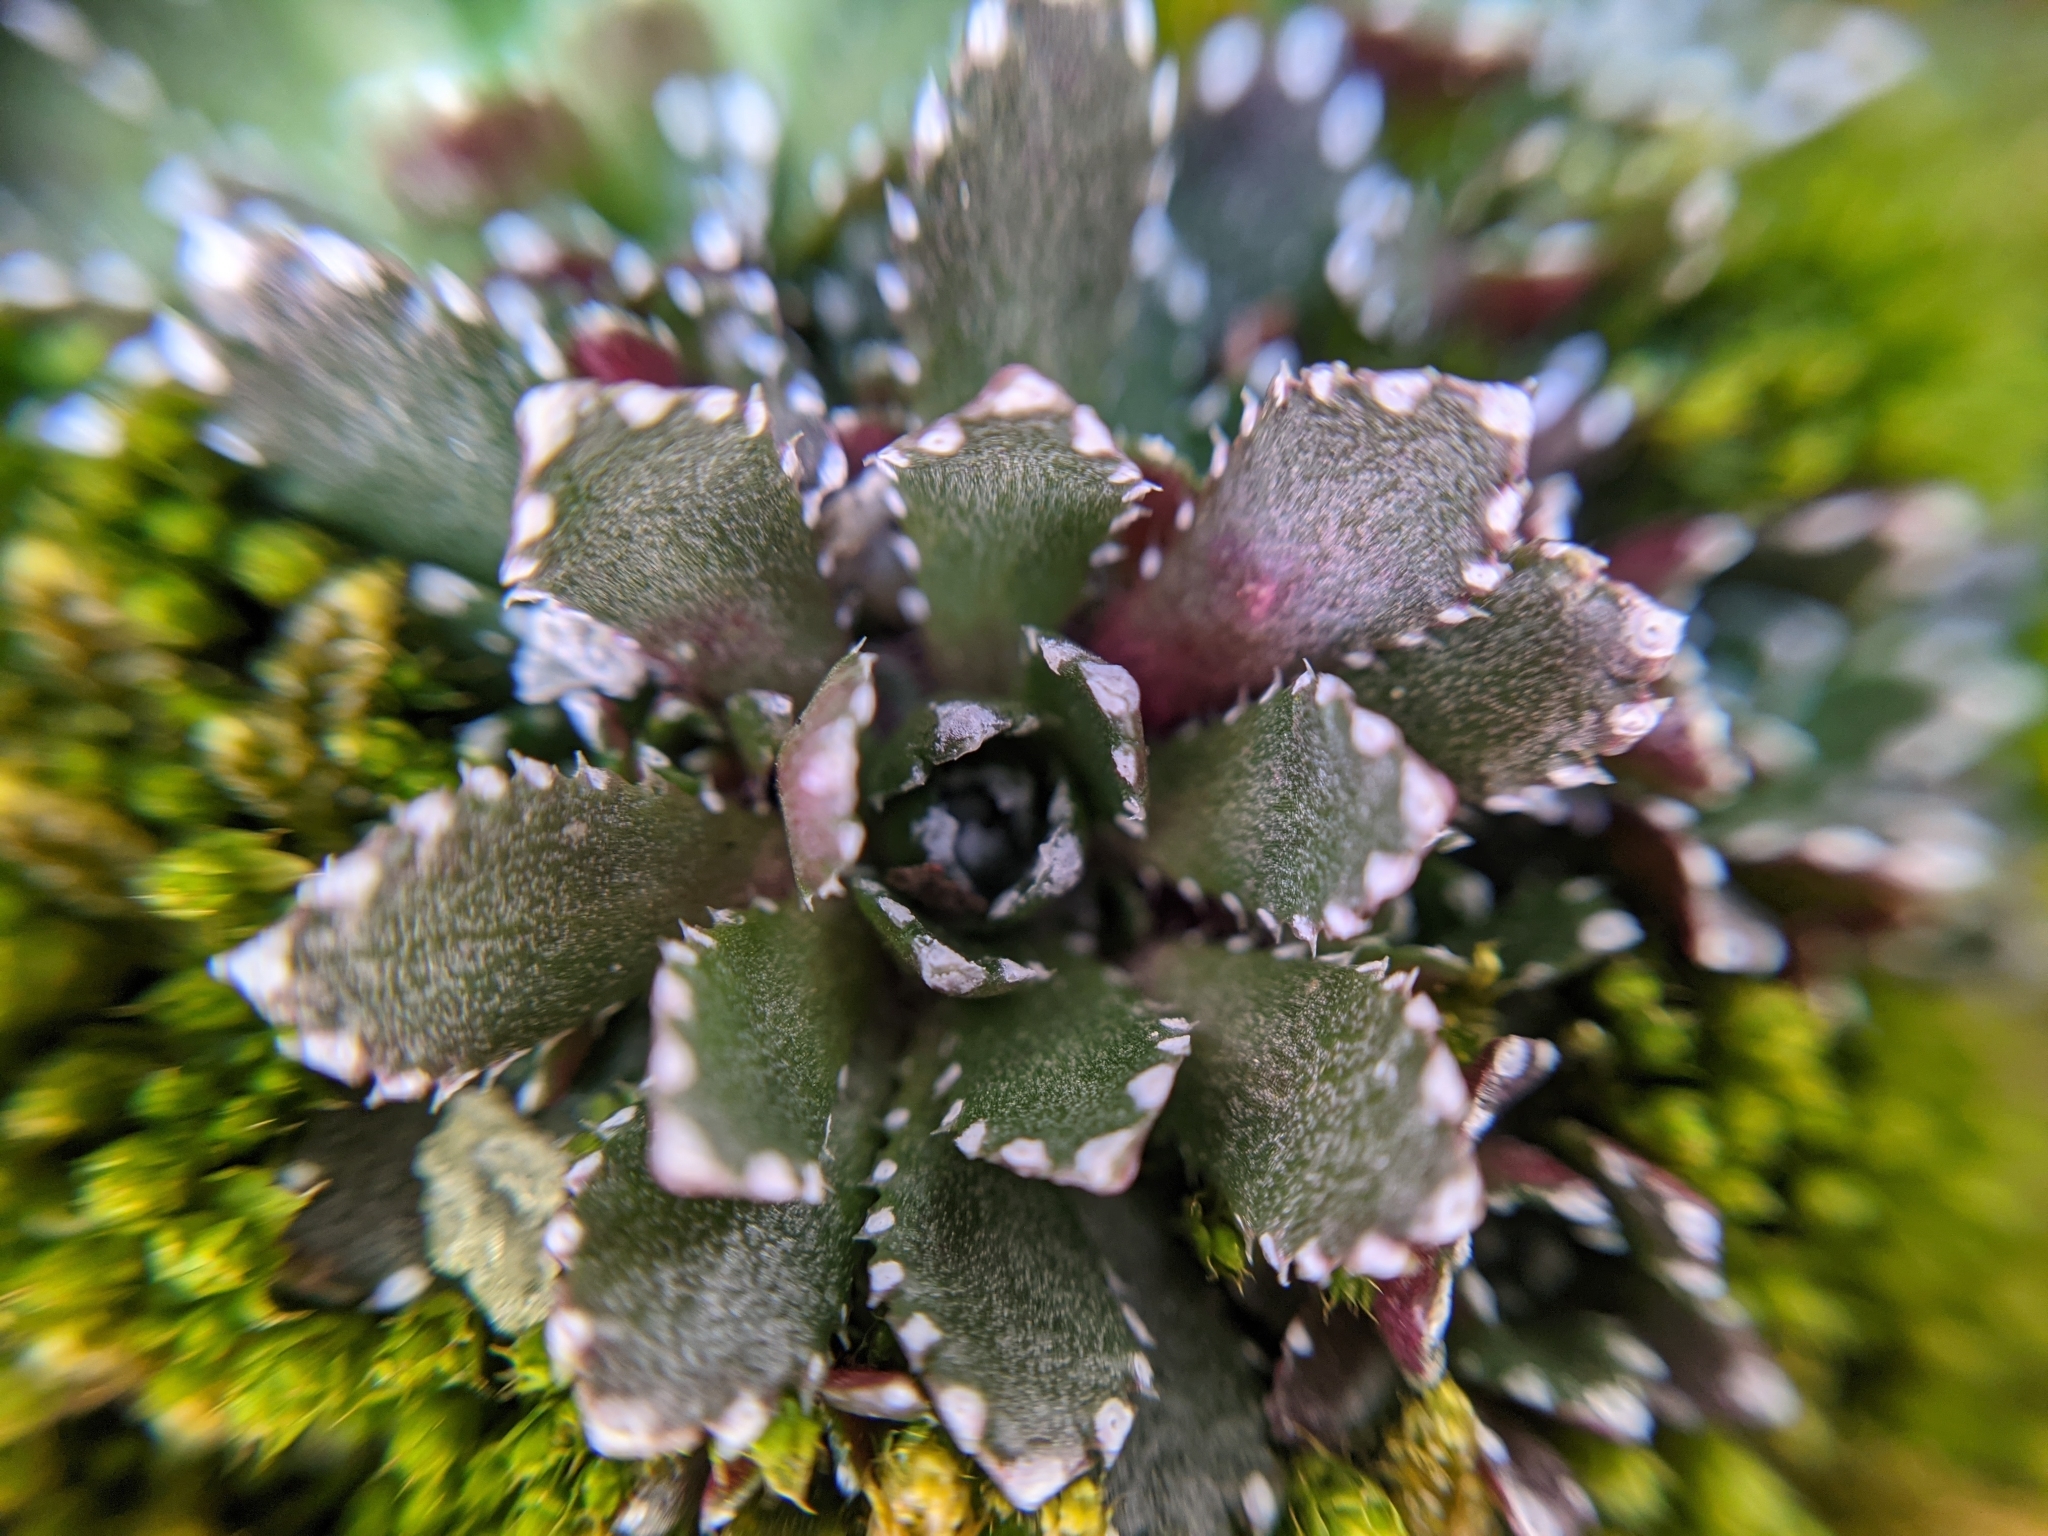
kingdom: Plantae
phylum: Tracheophyta
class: Magnoliopsida
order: Saxifragales
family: Saxifragaceae
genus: Saxifraga
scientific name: Saxifraga paniculata
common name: Livelong saxifrage
